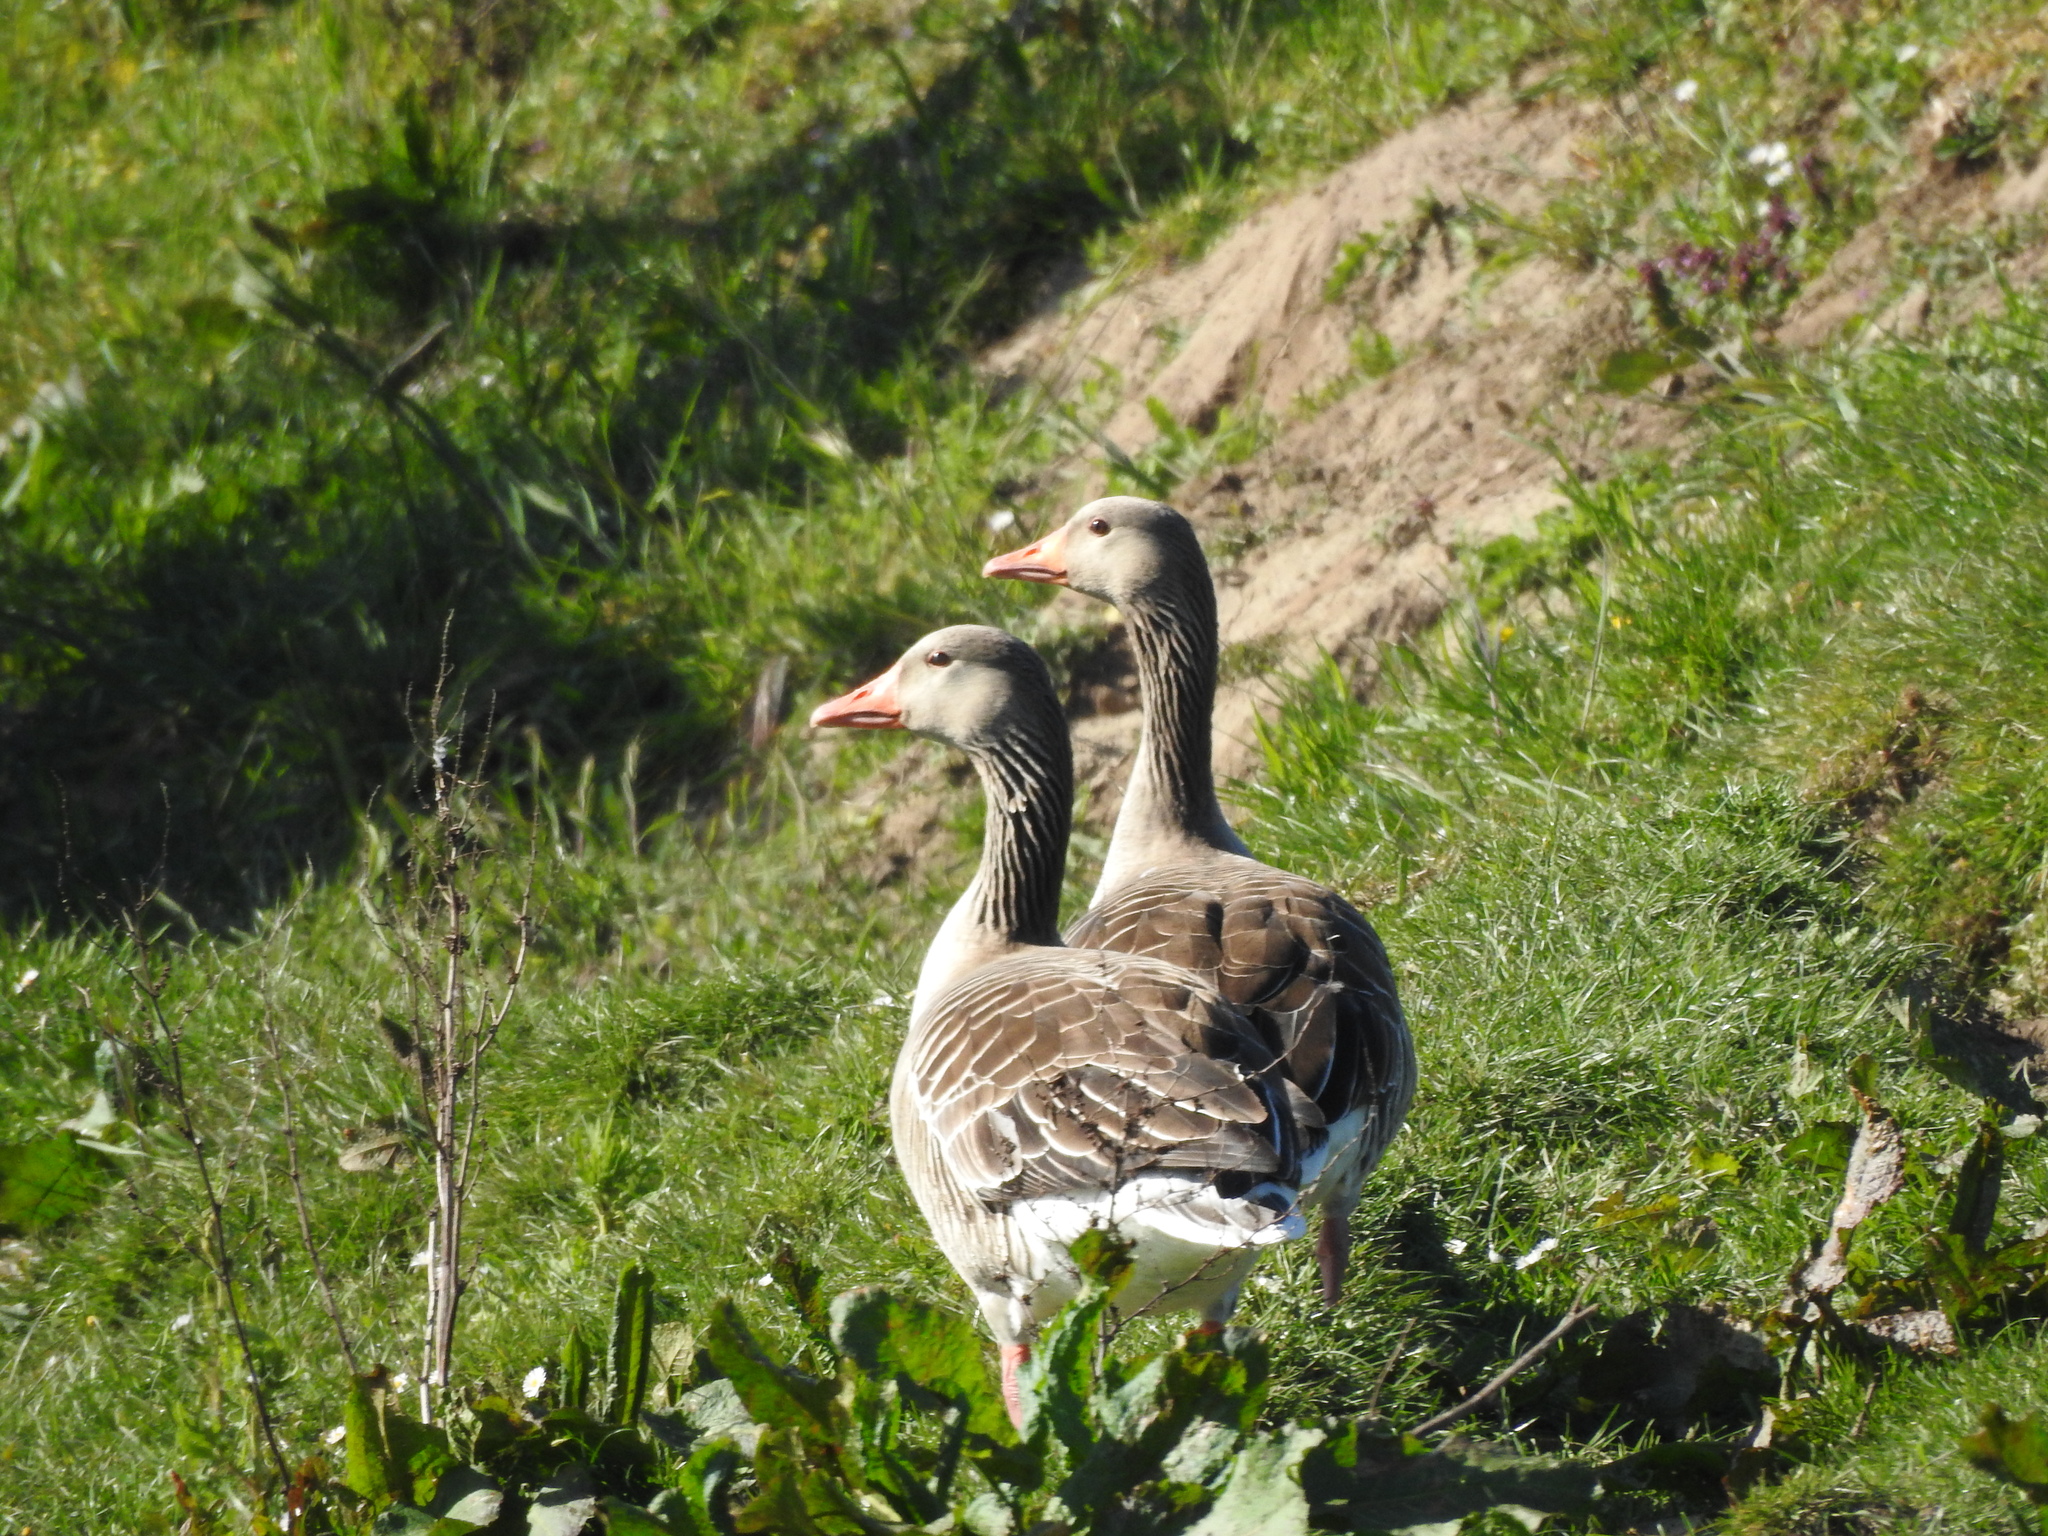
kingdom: Animalia
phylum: Chordata
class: Aves
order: Anseriformes
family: Anatidae
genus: Anser
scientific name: Anser anser
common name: Greylag goose
